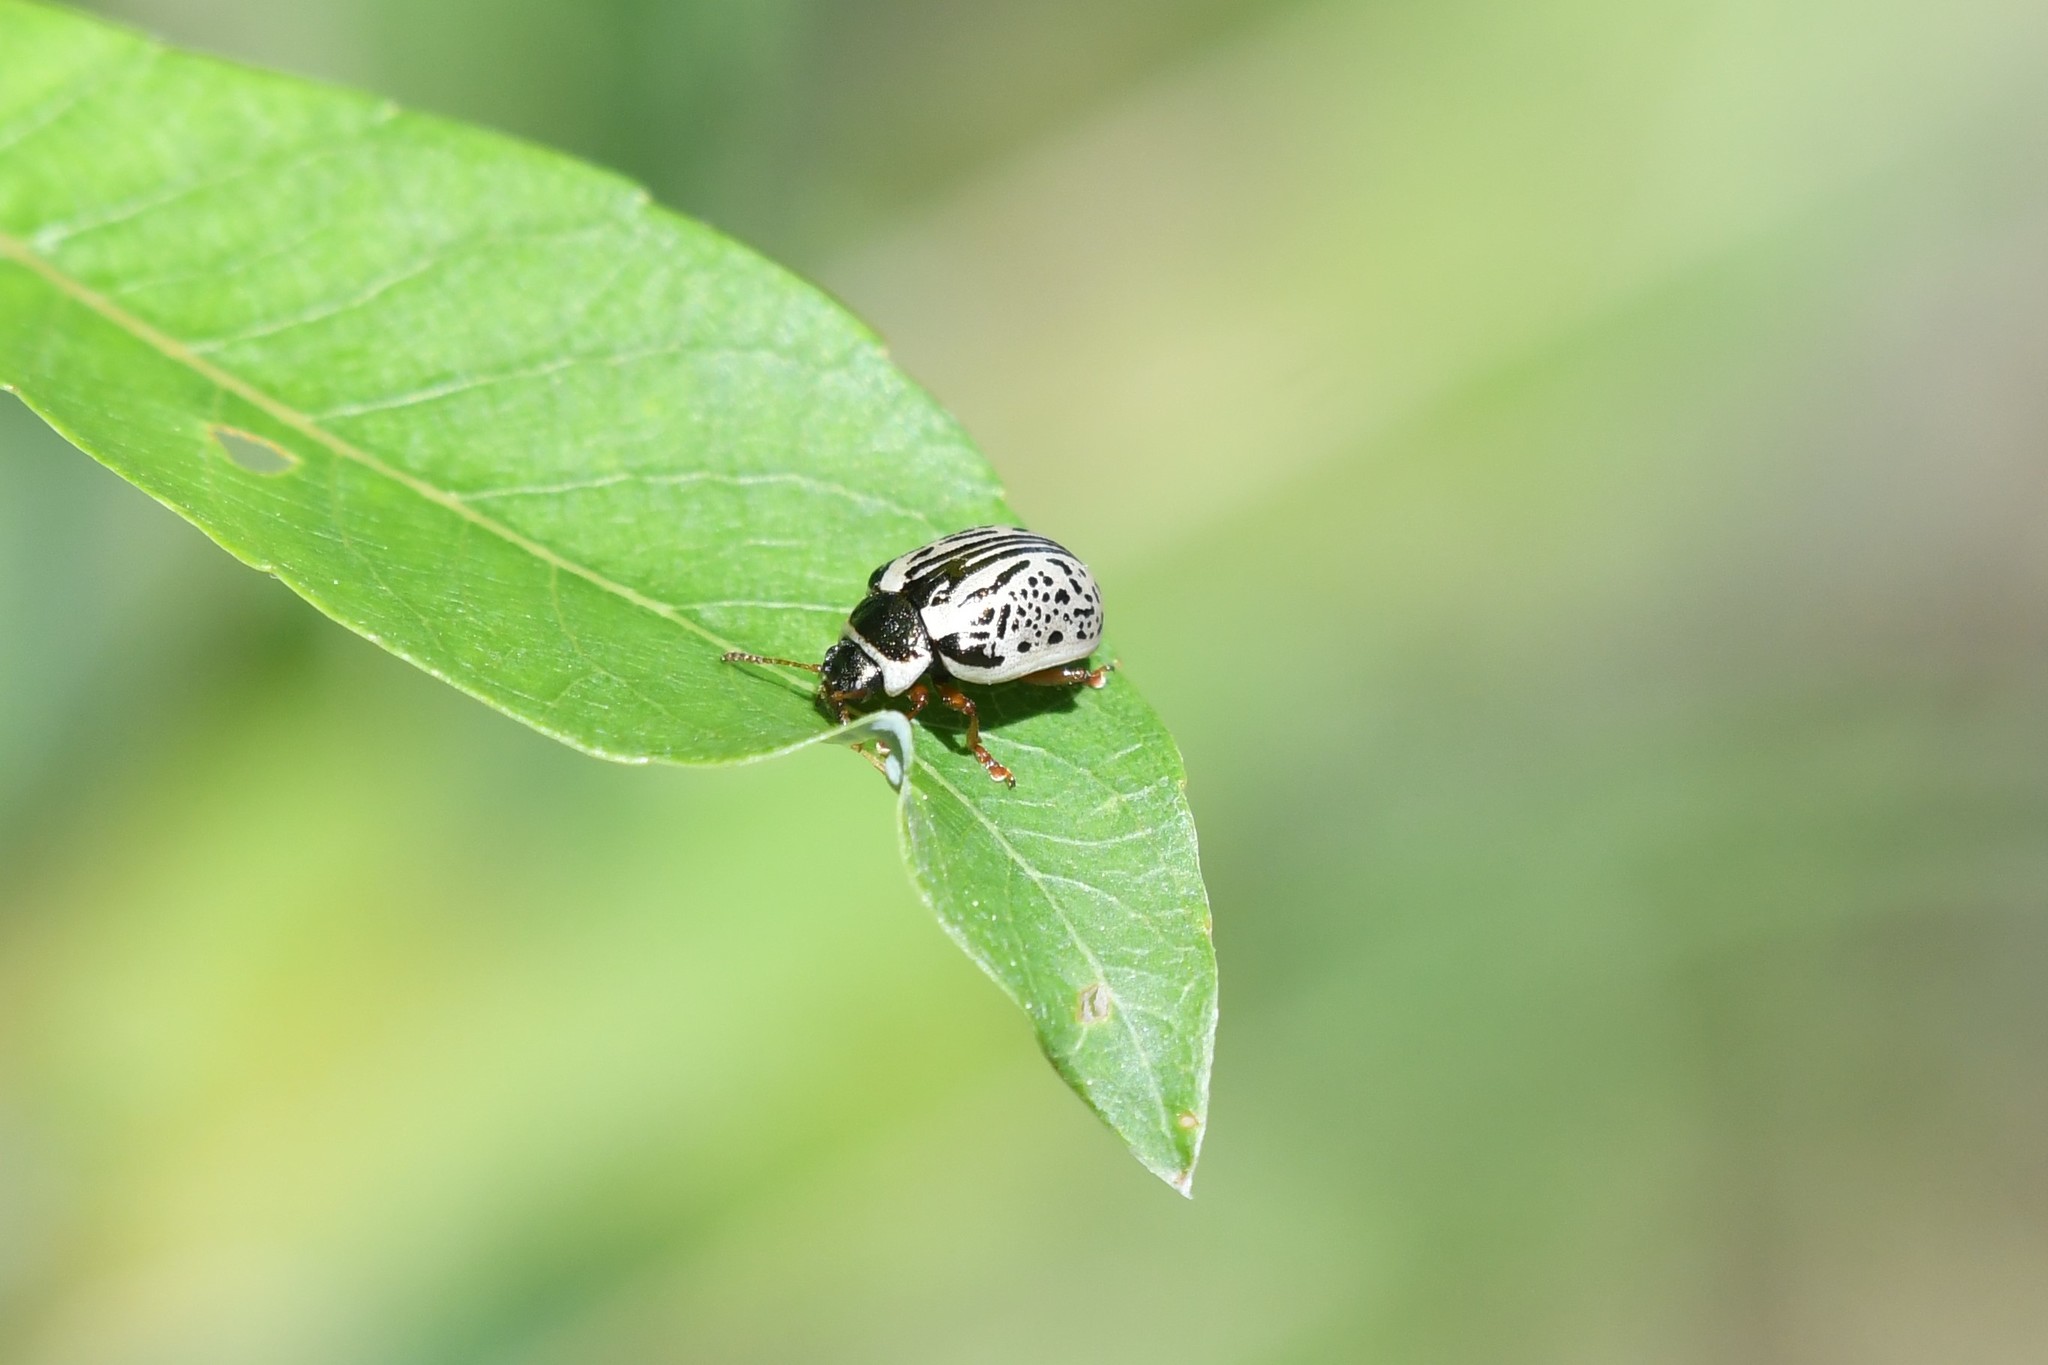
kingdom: Animalia
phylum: Arthropoda
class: Insecta
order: Coleoptera
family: Chrysomelidae
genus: Calligrapha
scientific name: Calligrapha multipunctata
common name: Common willow calligrapher beetle
